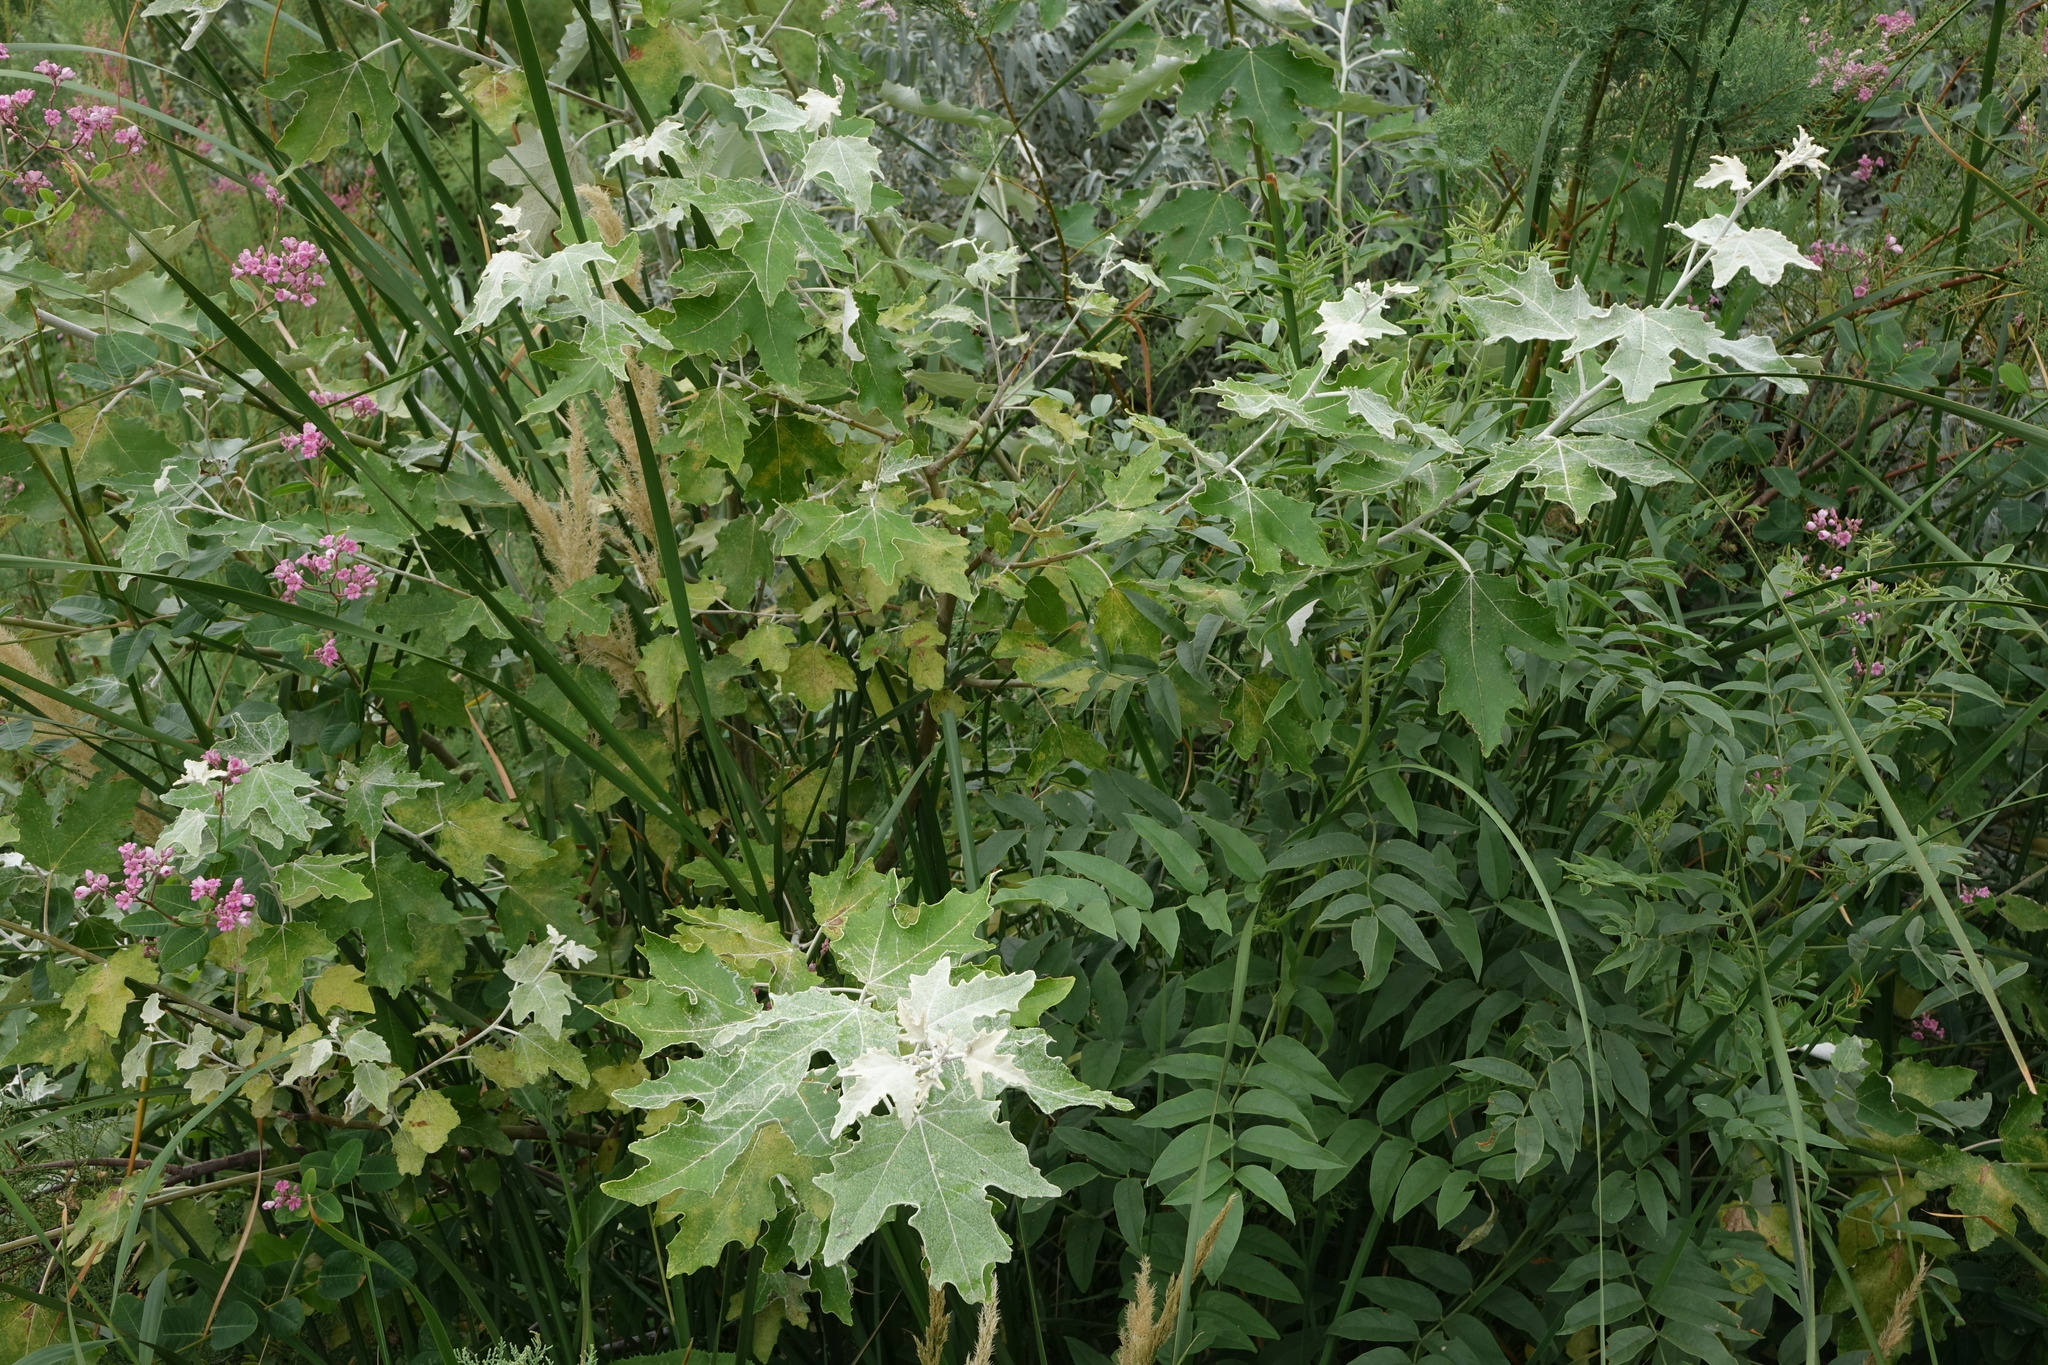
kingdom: Plantae
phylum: Tracheophyta
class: Magnoliopsida
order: Malpighiales
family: Salicaceae
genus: Populus
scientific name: Populus alba
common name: White poplar
